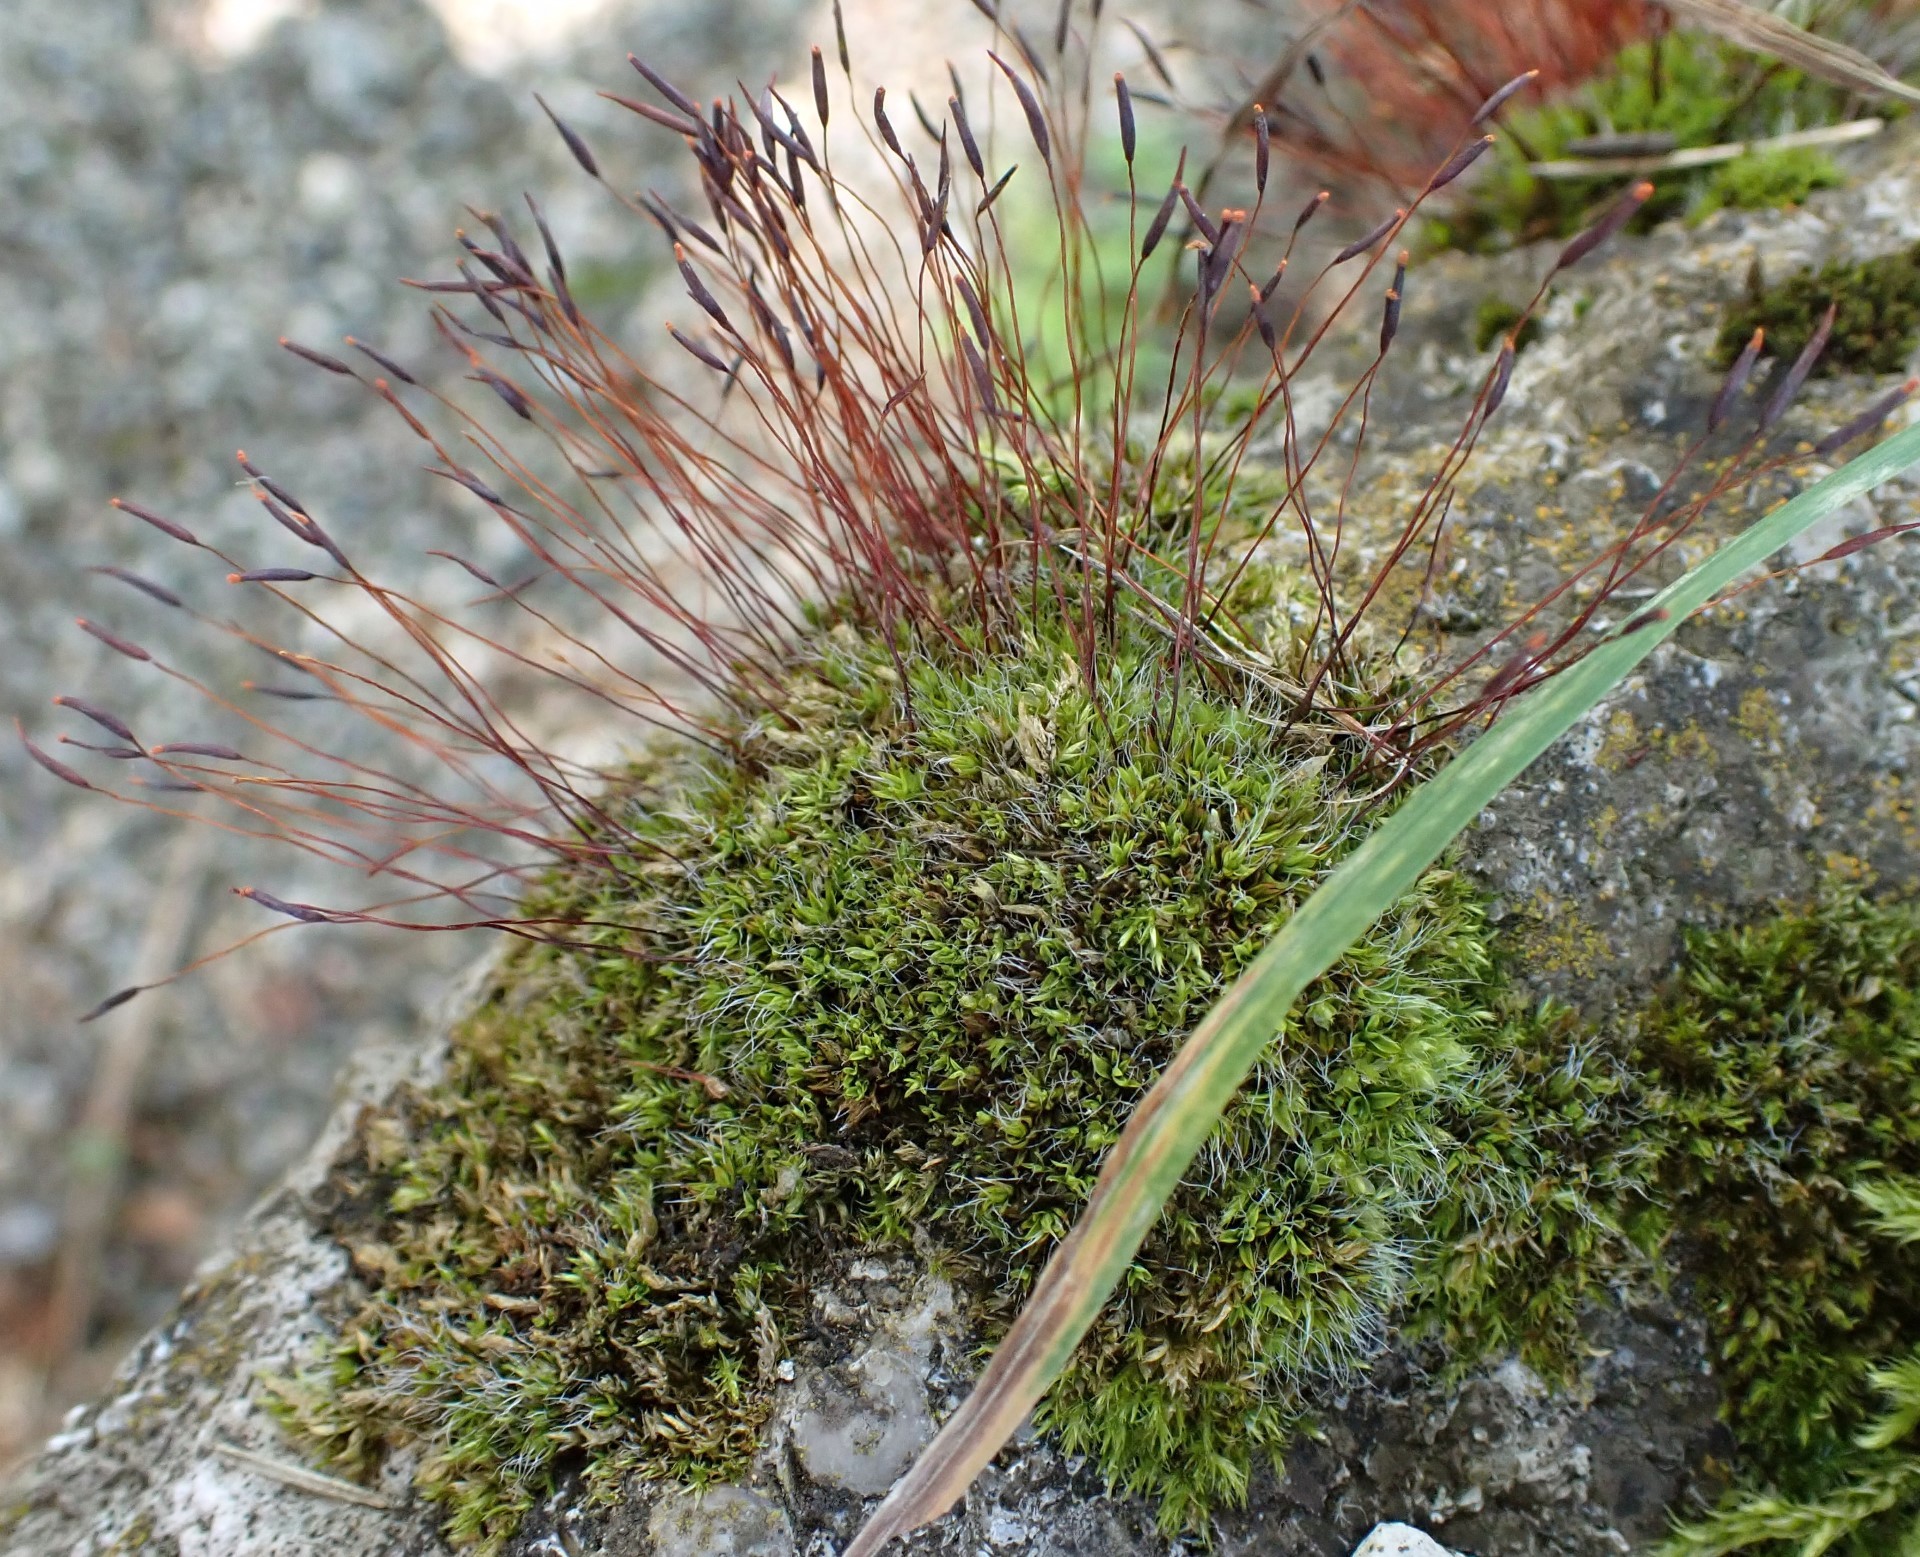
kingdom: Plantae
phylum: Bryophyta
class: Bryopsida
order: Pottiales
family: Pottiaceae
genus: Tortula
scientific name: Tortula muralis
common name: Wall screw-moss
